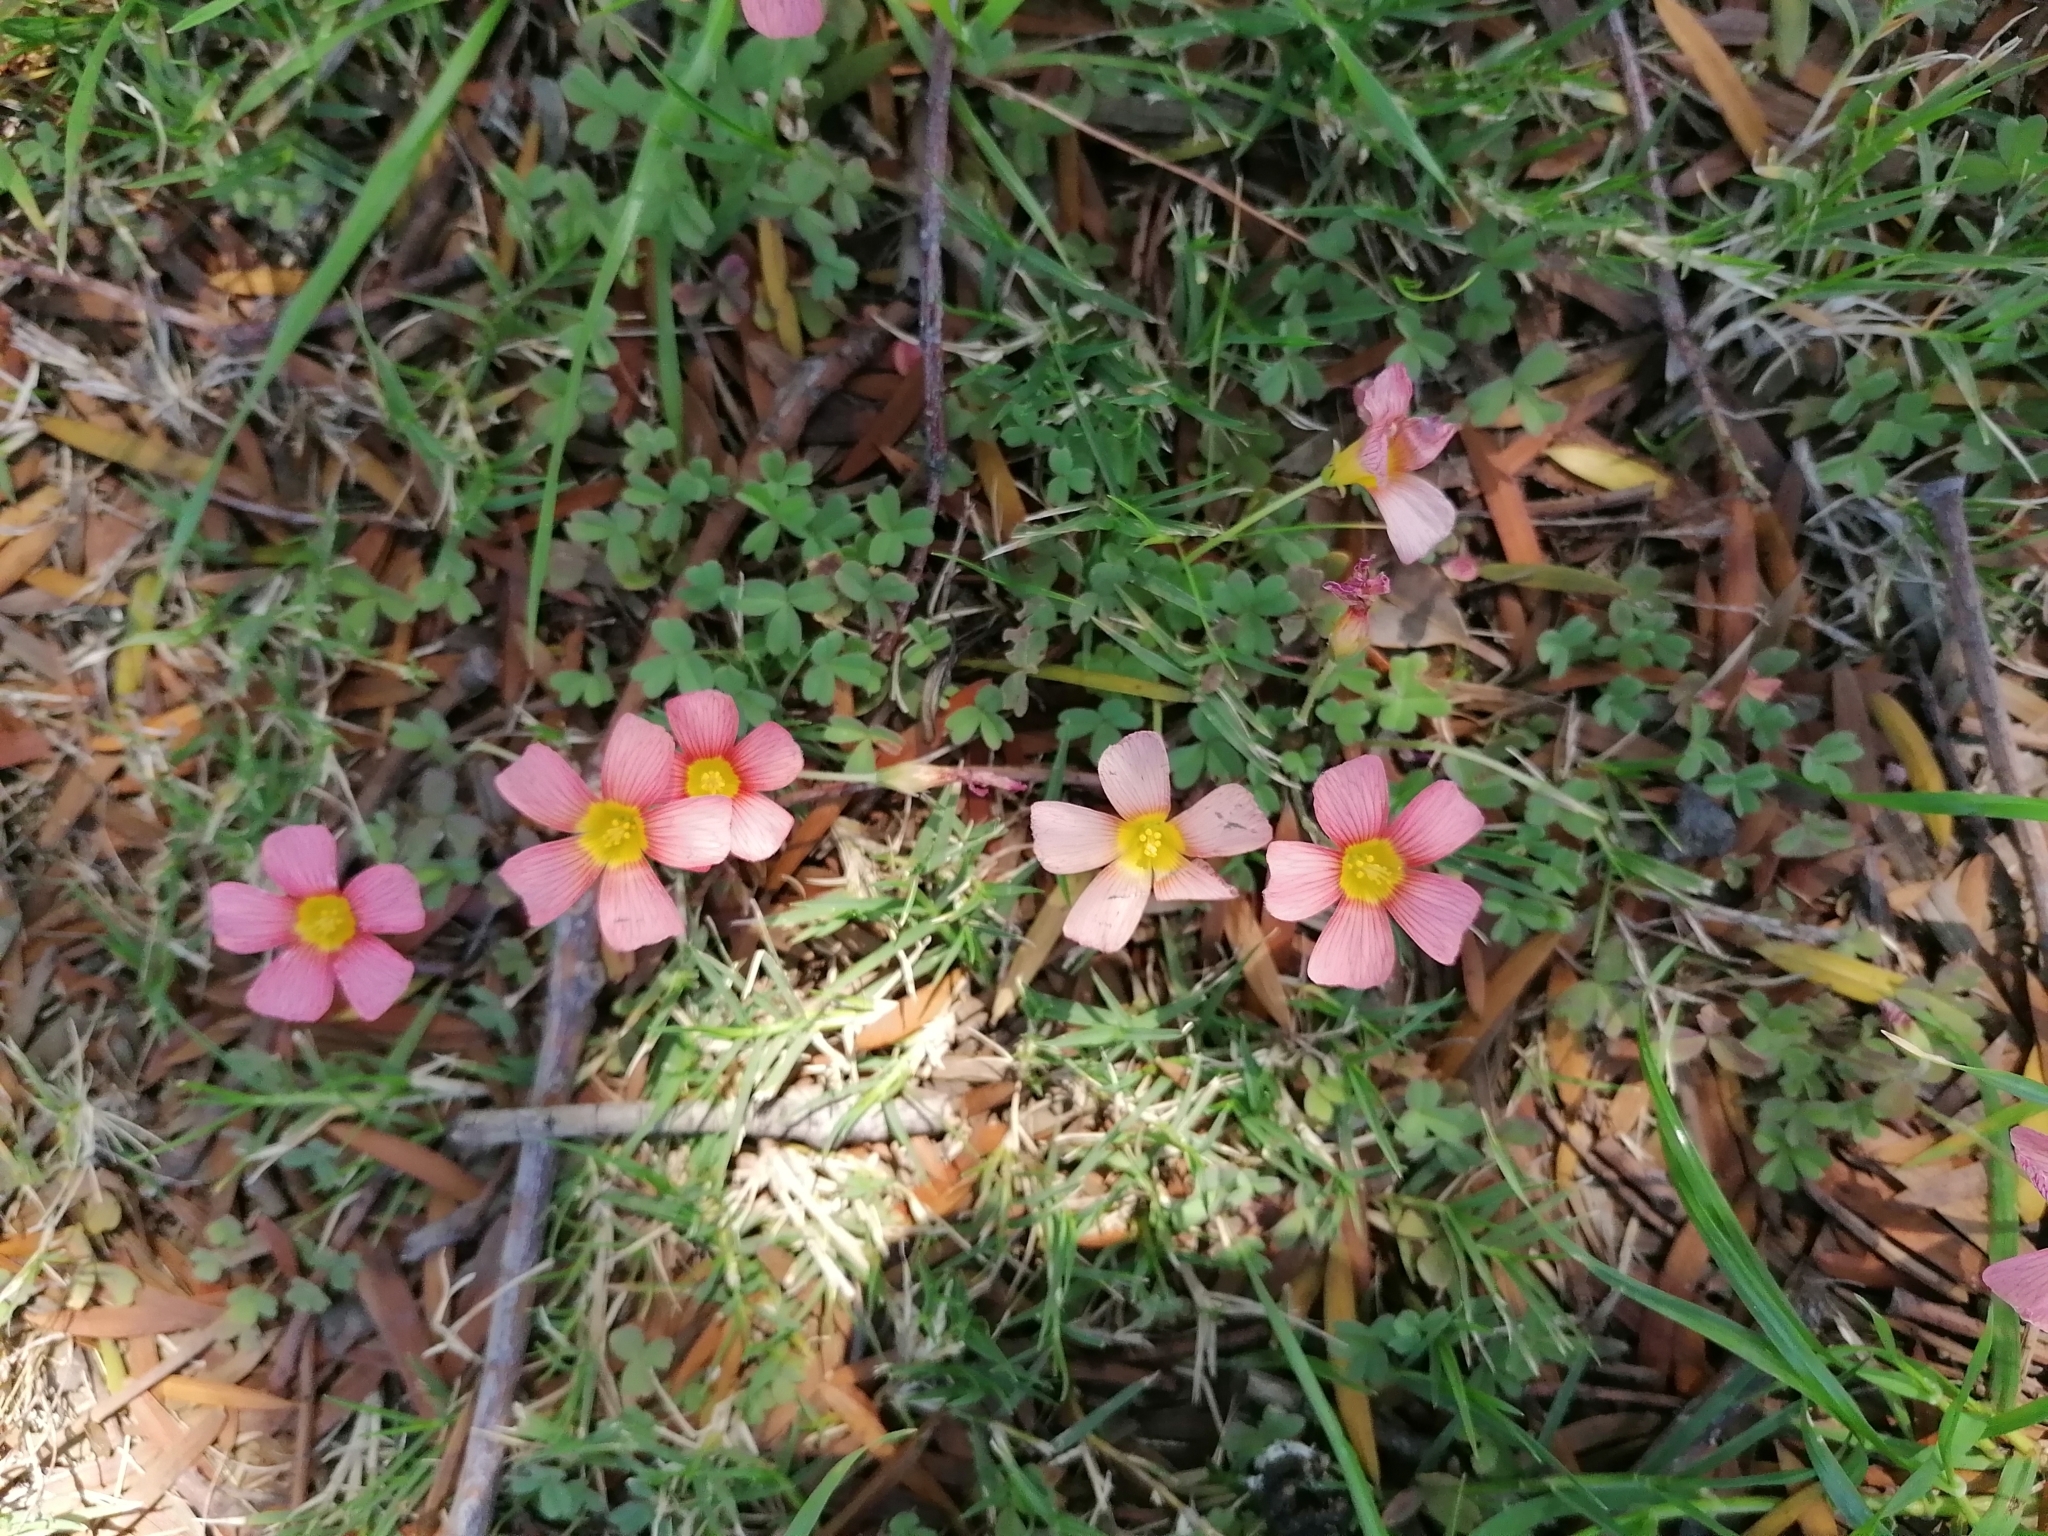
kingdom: Plantae
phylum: Tracheophyta
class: Magnoliopsida
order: Oxalidales
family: Oxalidaceae
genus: Oxalis
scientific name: Oxalis obtusa
